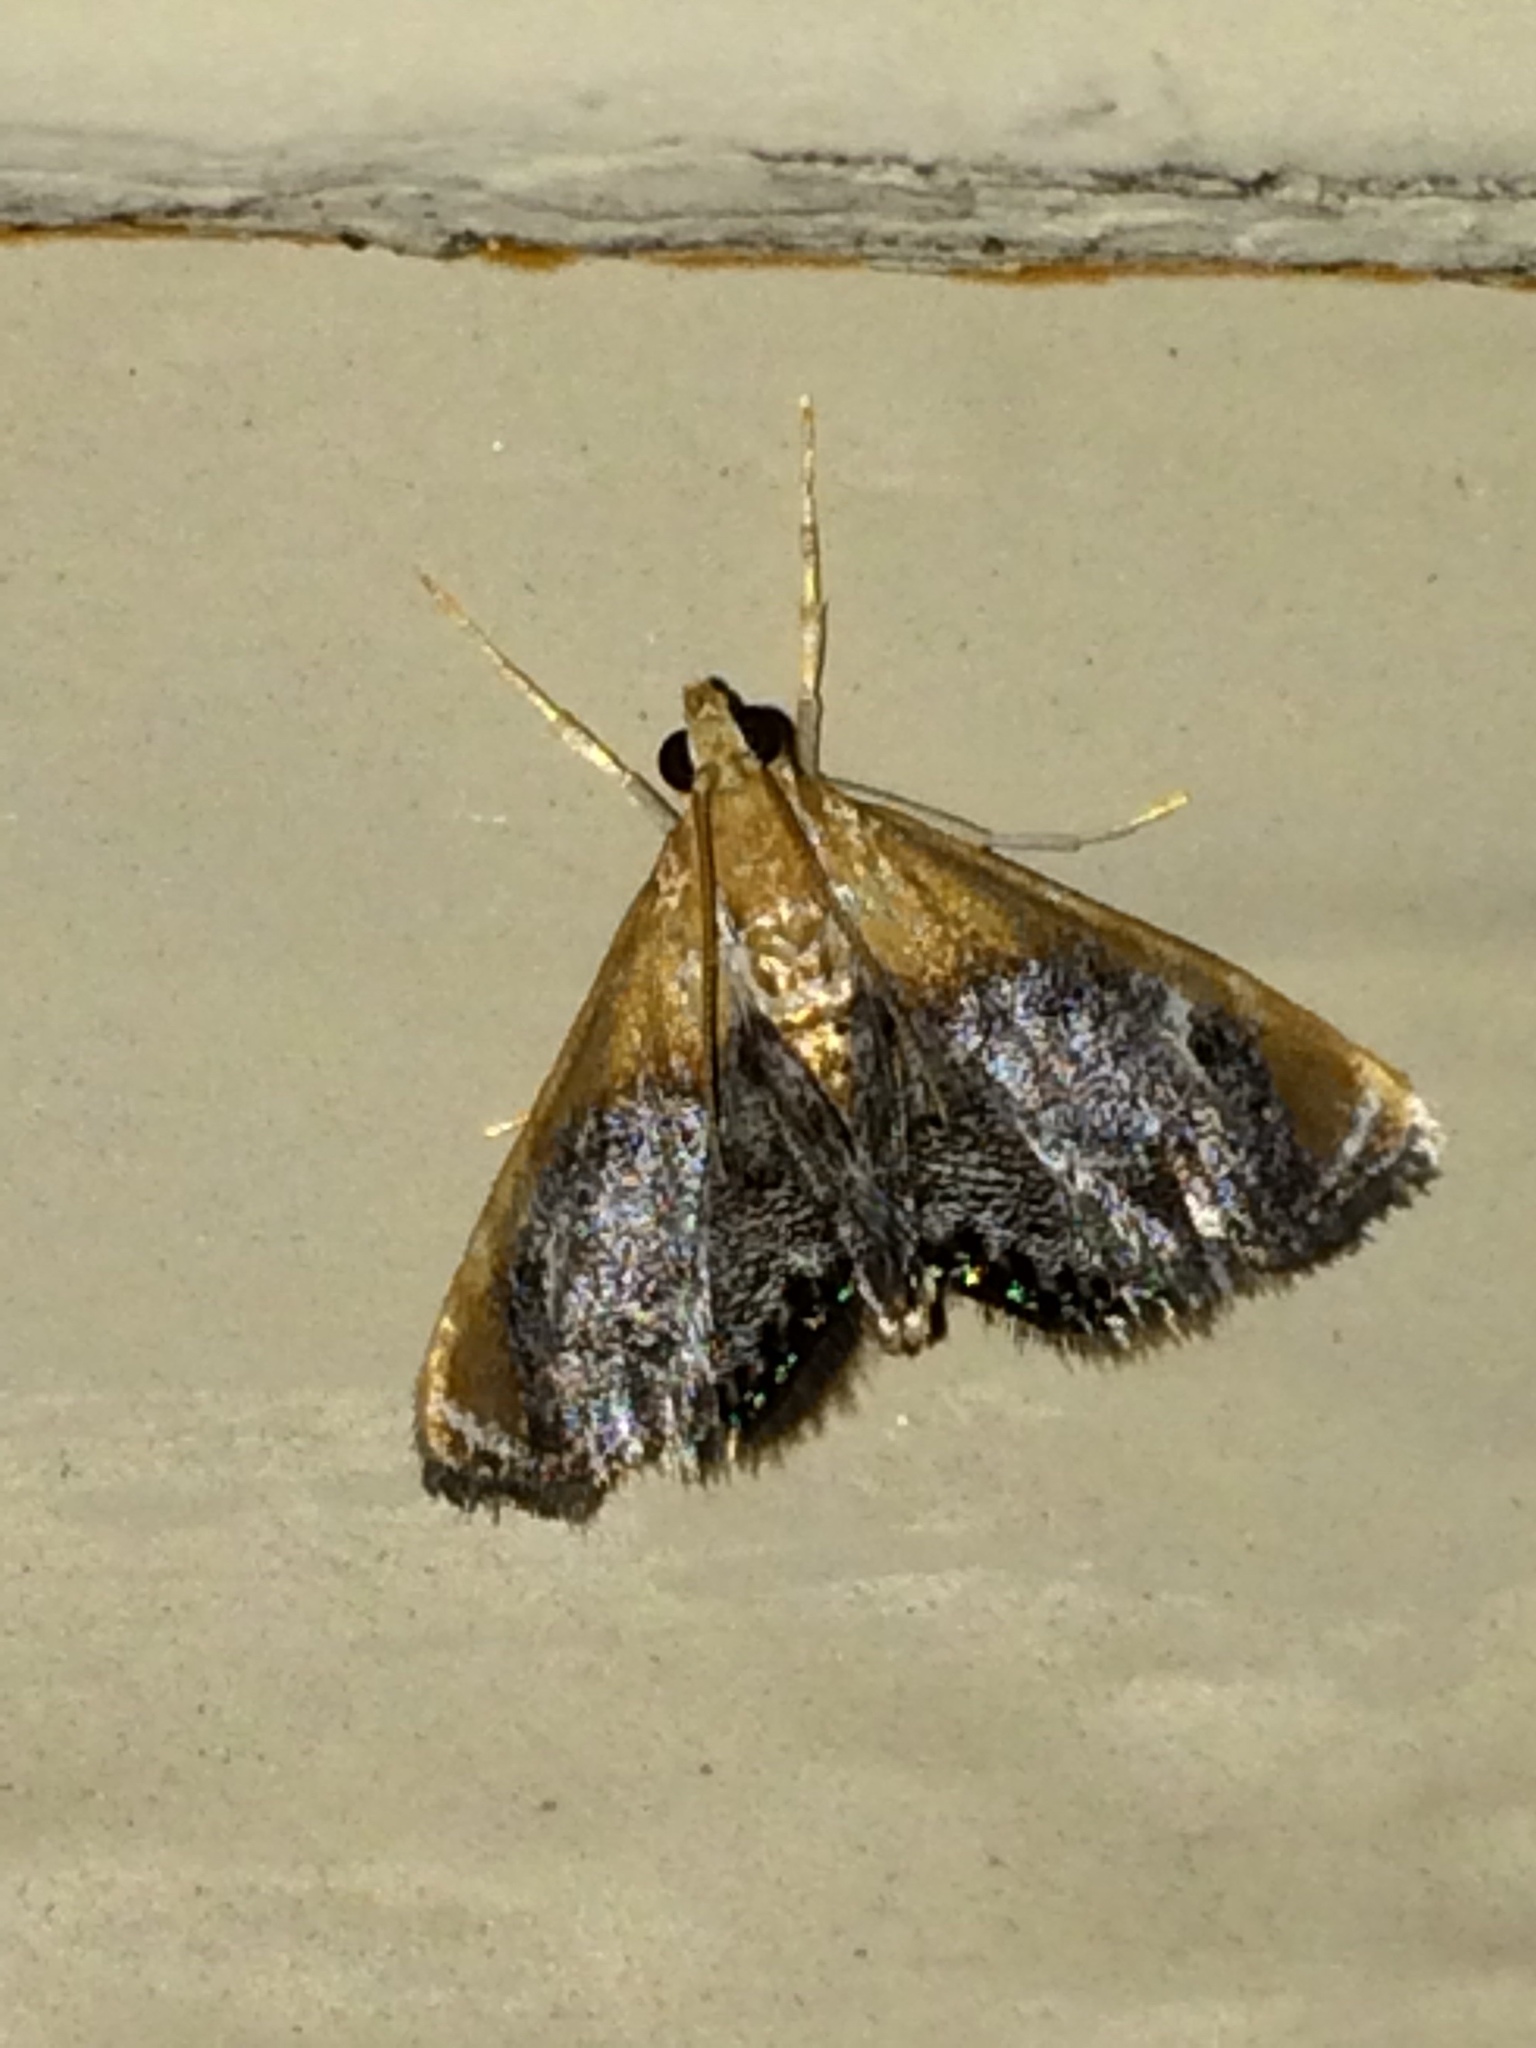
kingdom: Animalia
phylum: Arthropoda
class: Insecta
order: Lepidoptera
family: Crambidae
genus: Chalcoela
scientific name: Chalcoela iphitalis
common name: Sooty-winged chalcoela moth
